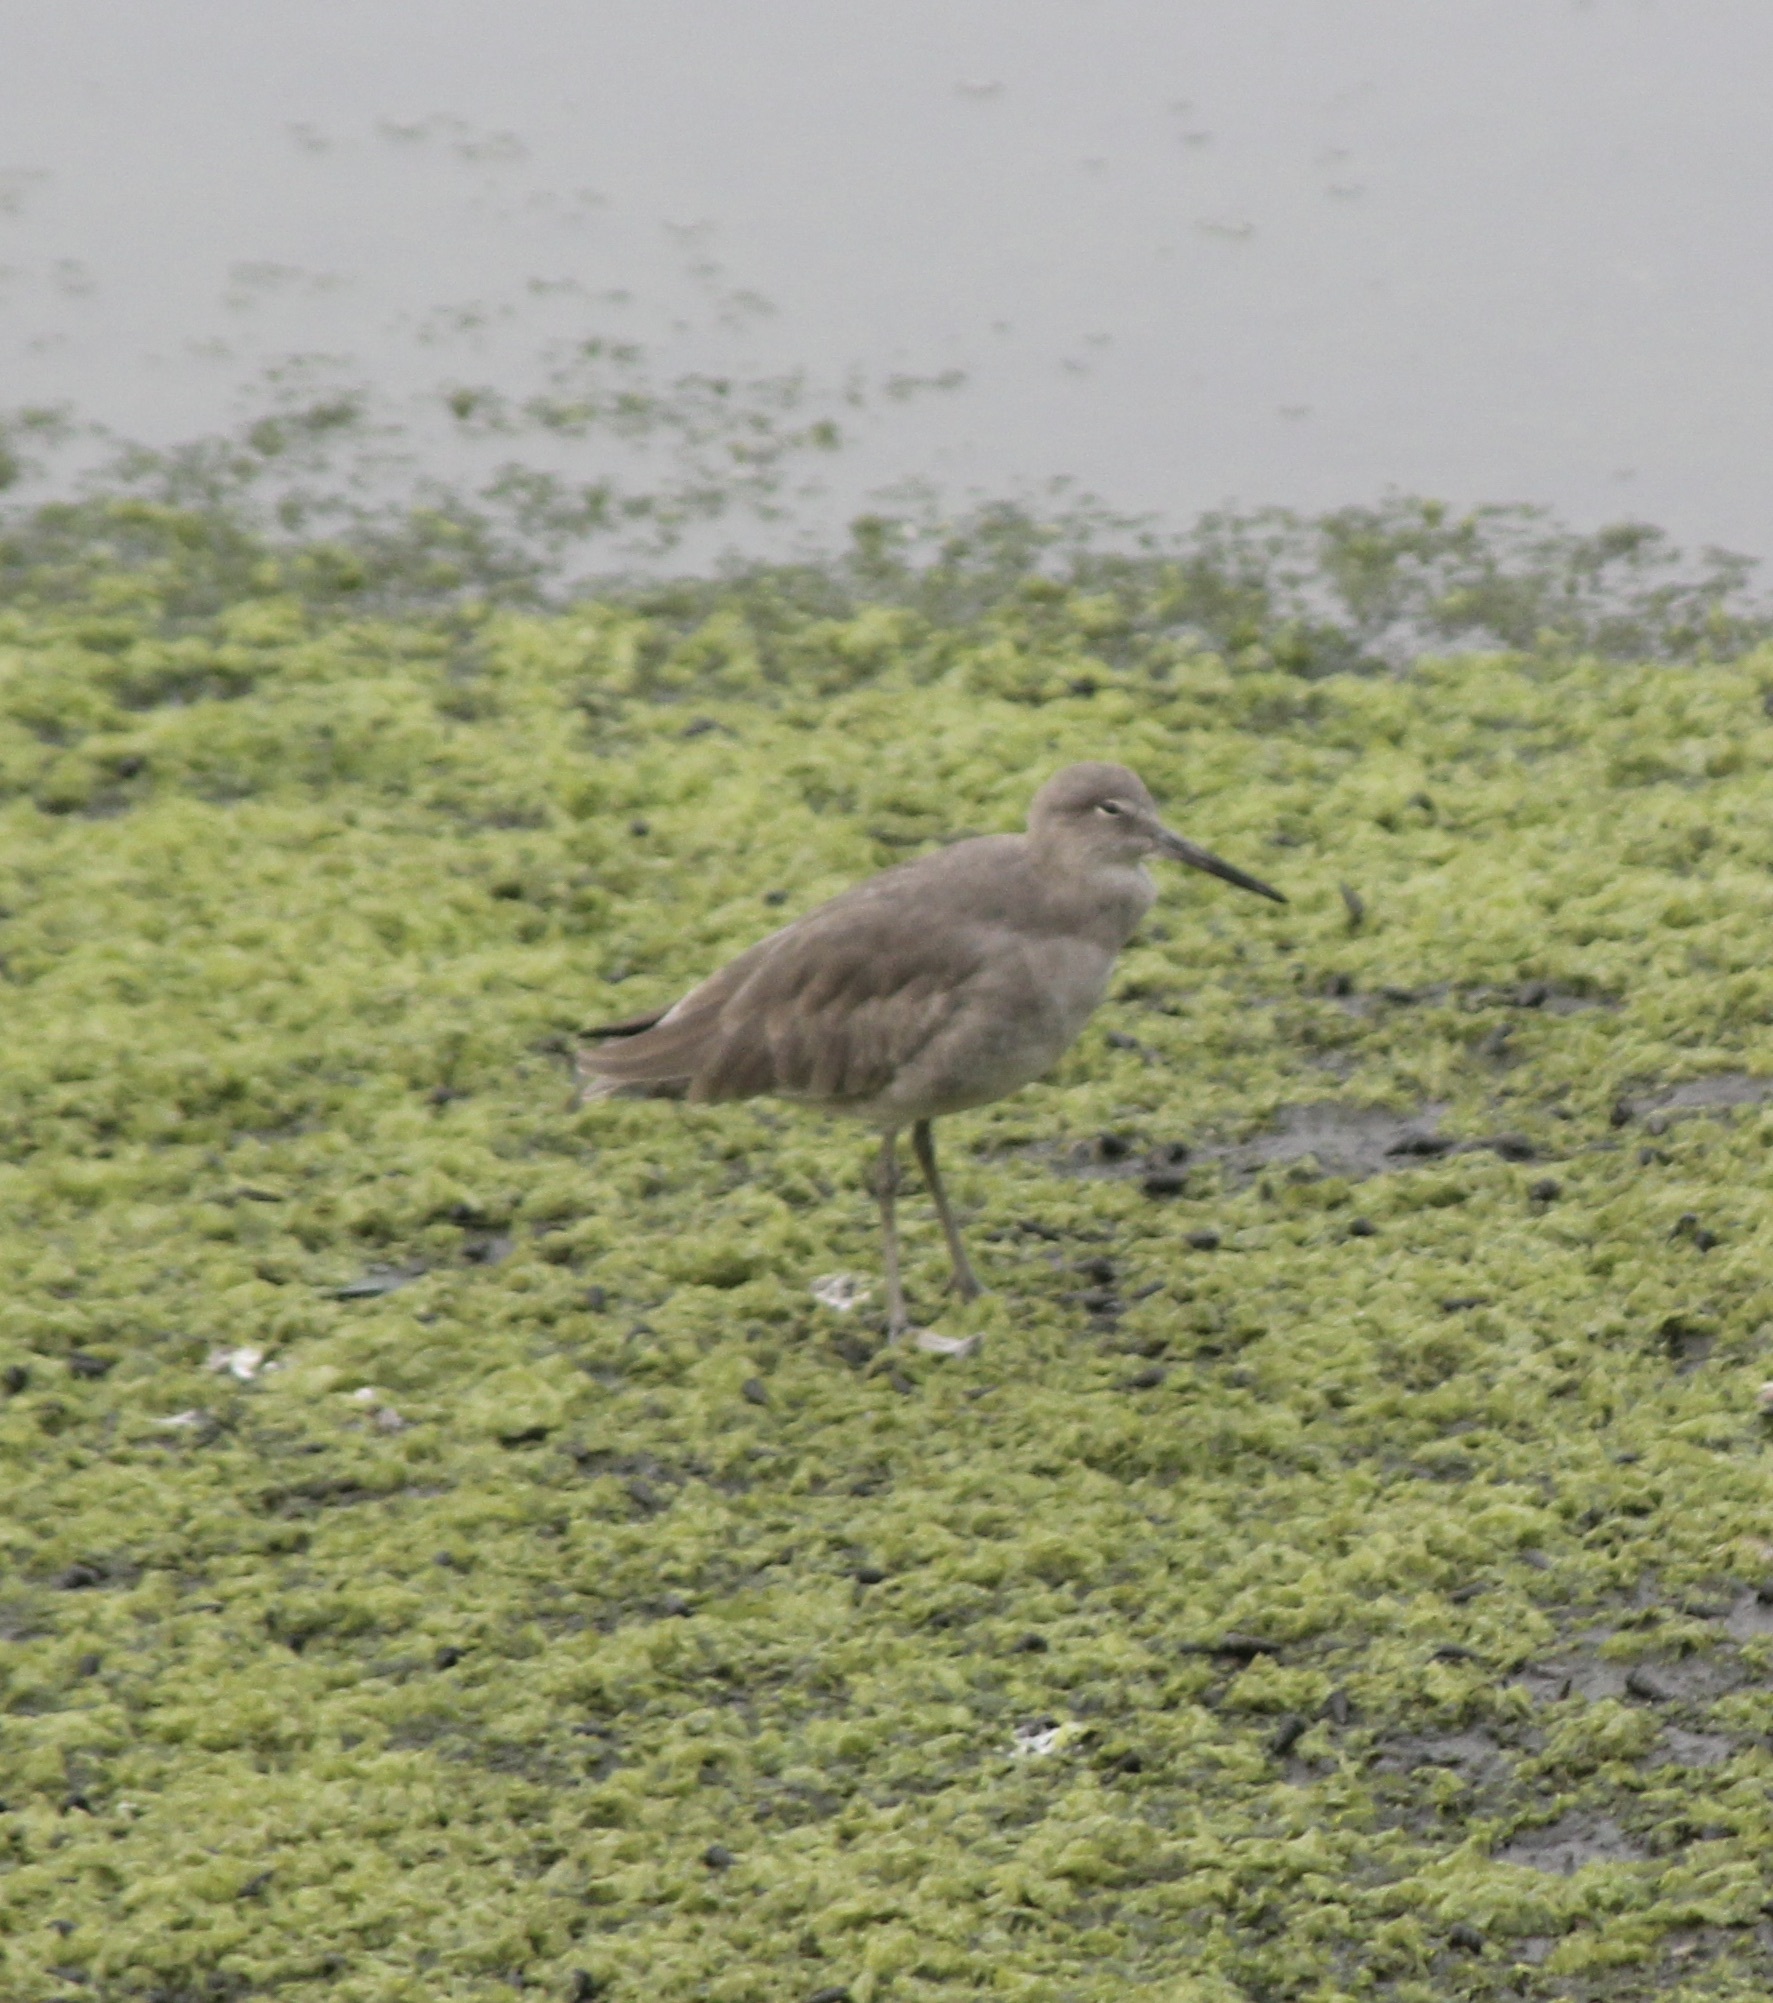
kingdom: Animalia
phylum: Chordata
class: Aves
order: Charadriiformes
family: Scolopacidae
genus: Tringa
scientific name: Tringa semipalmata
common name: Willet
